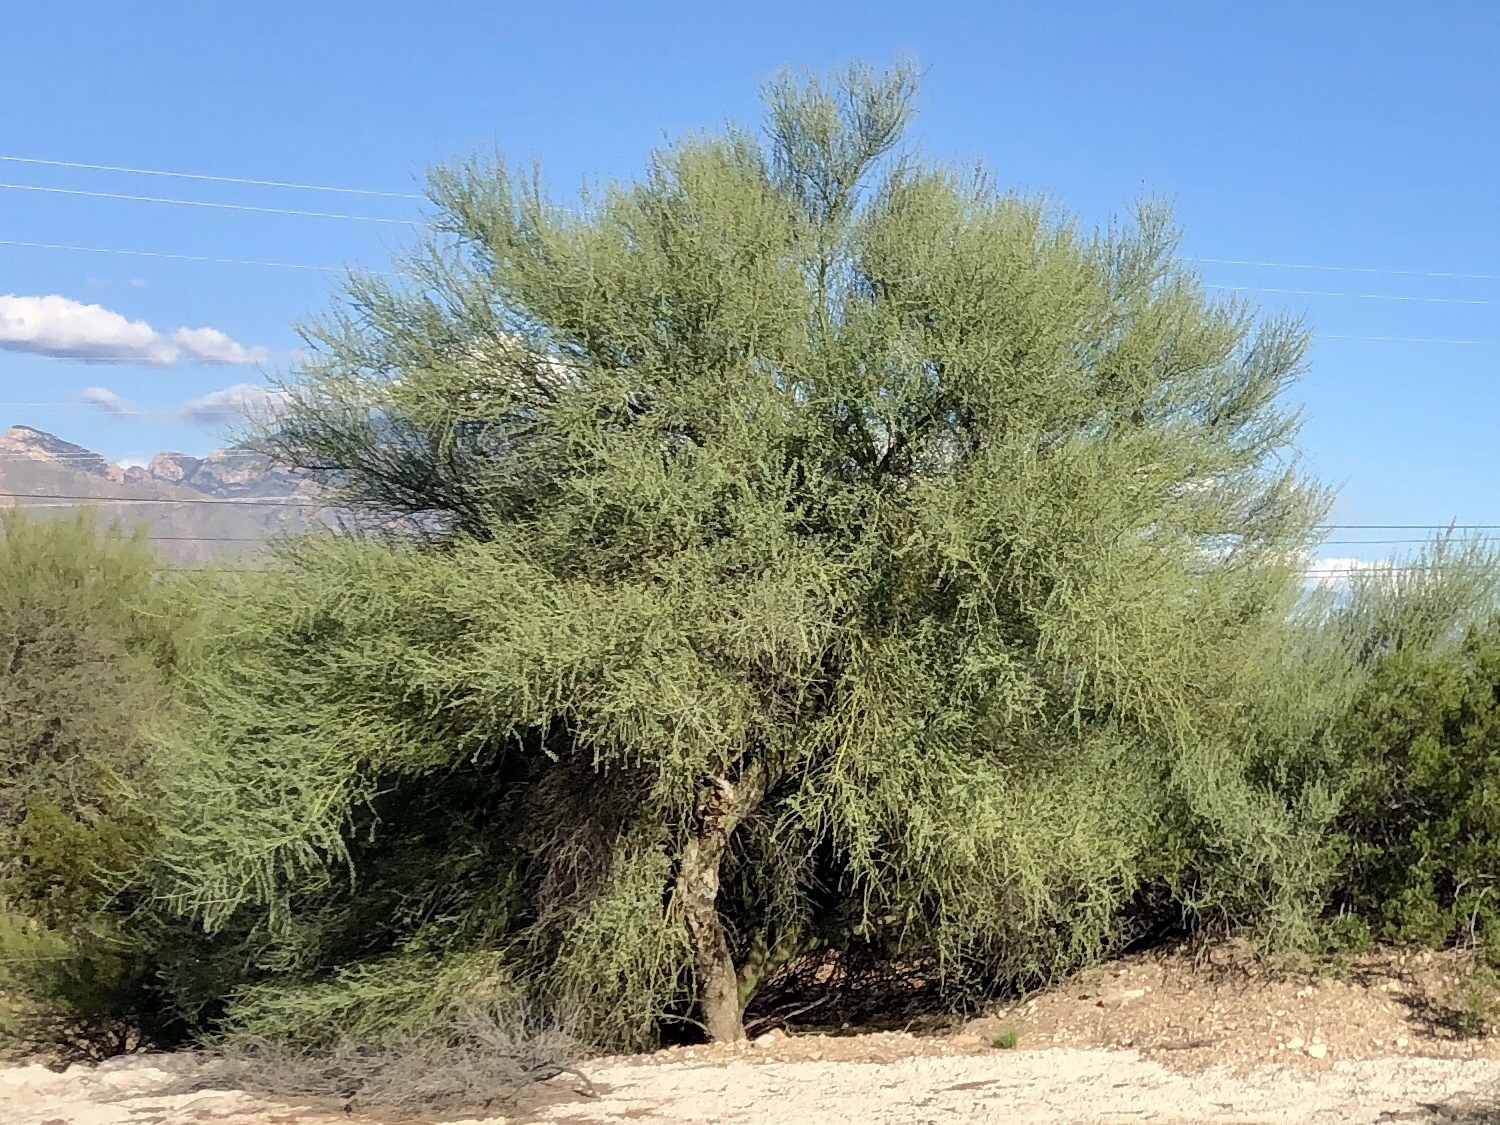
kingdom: Plantae
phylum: Tracheophyta
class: Magnoliopsida
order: Fabales
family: Fabaceae
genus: Parkinsonia
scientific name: Parkinsonia florida
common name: Blue paloverde
